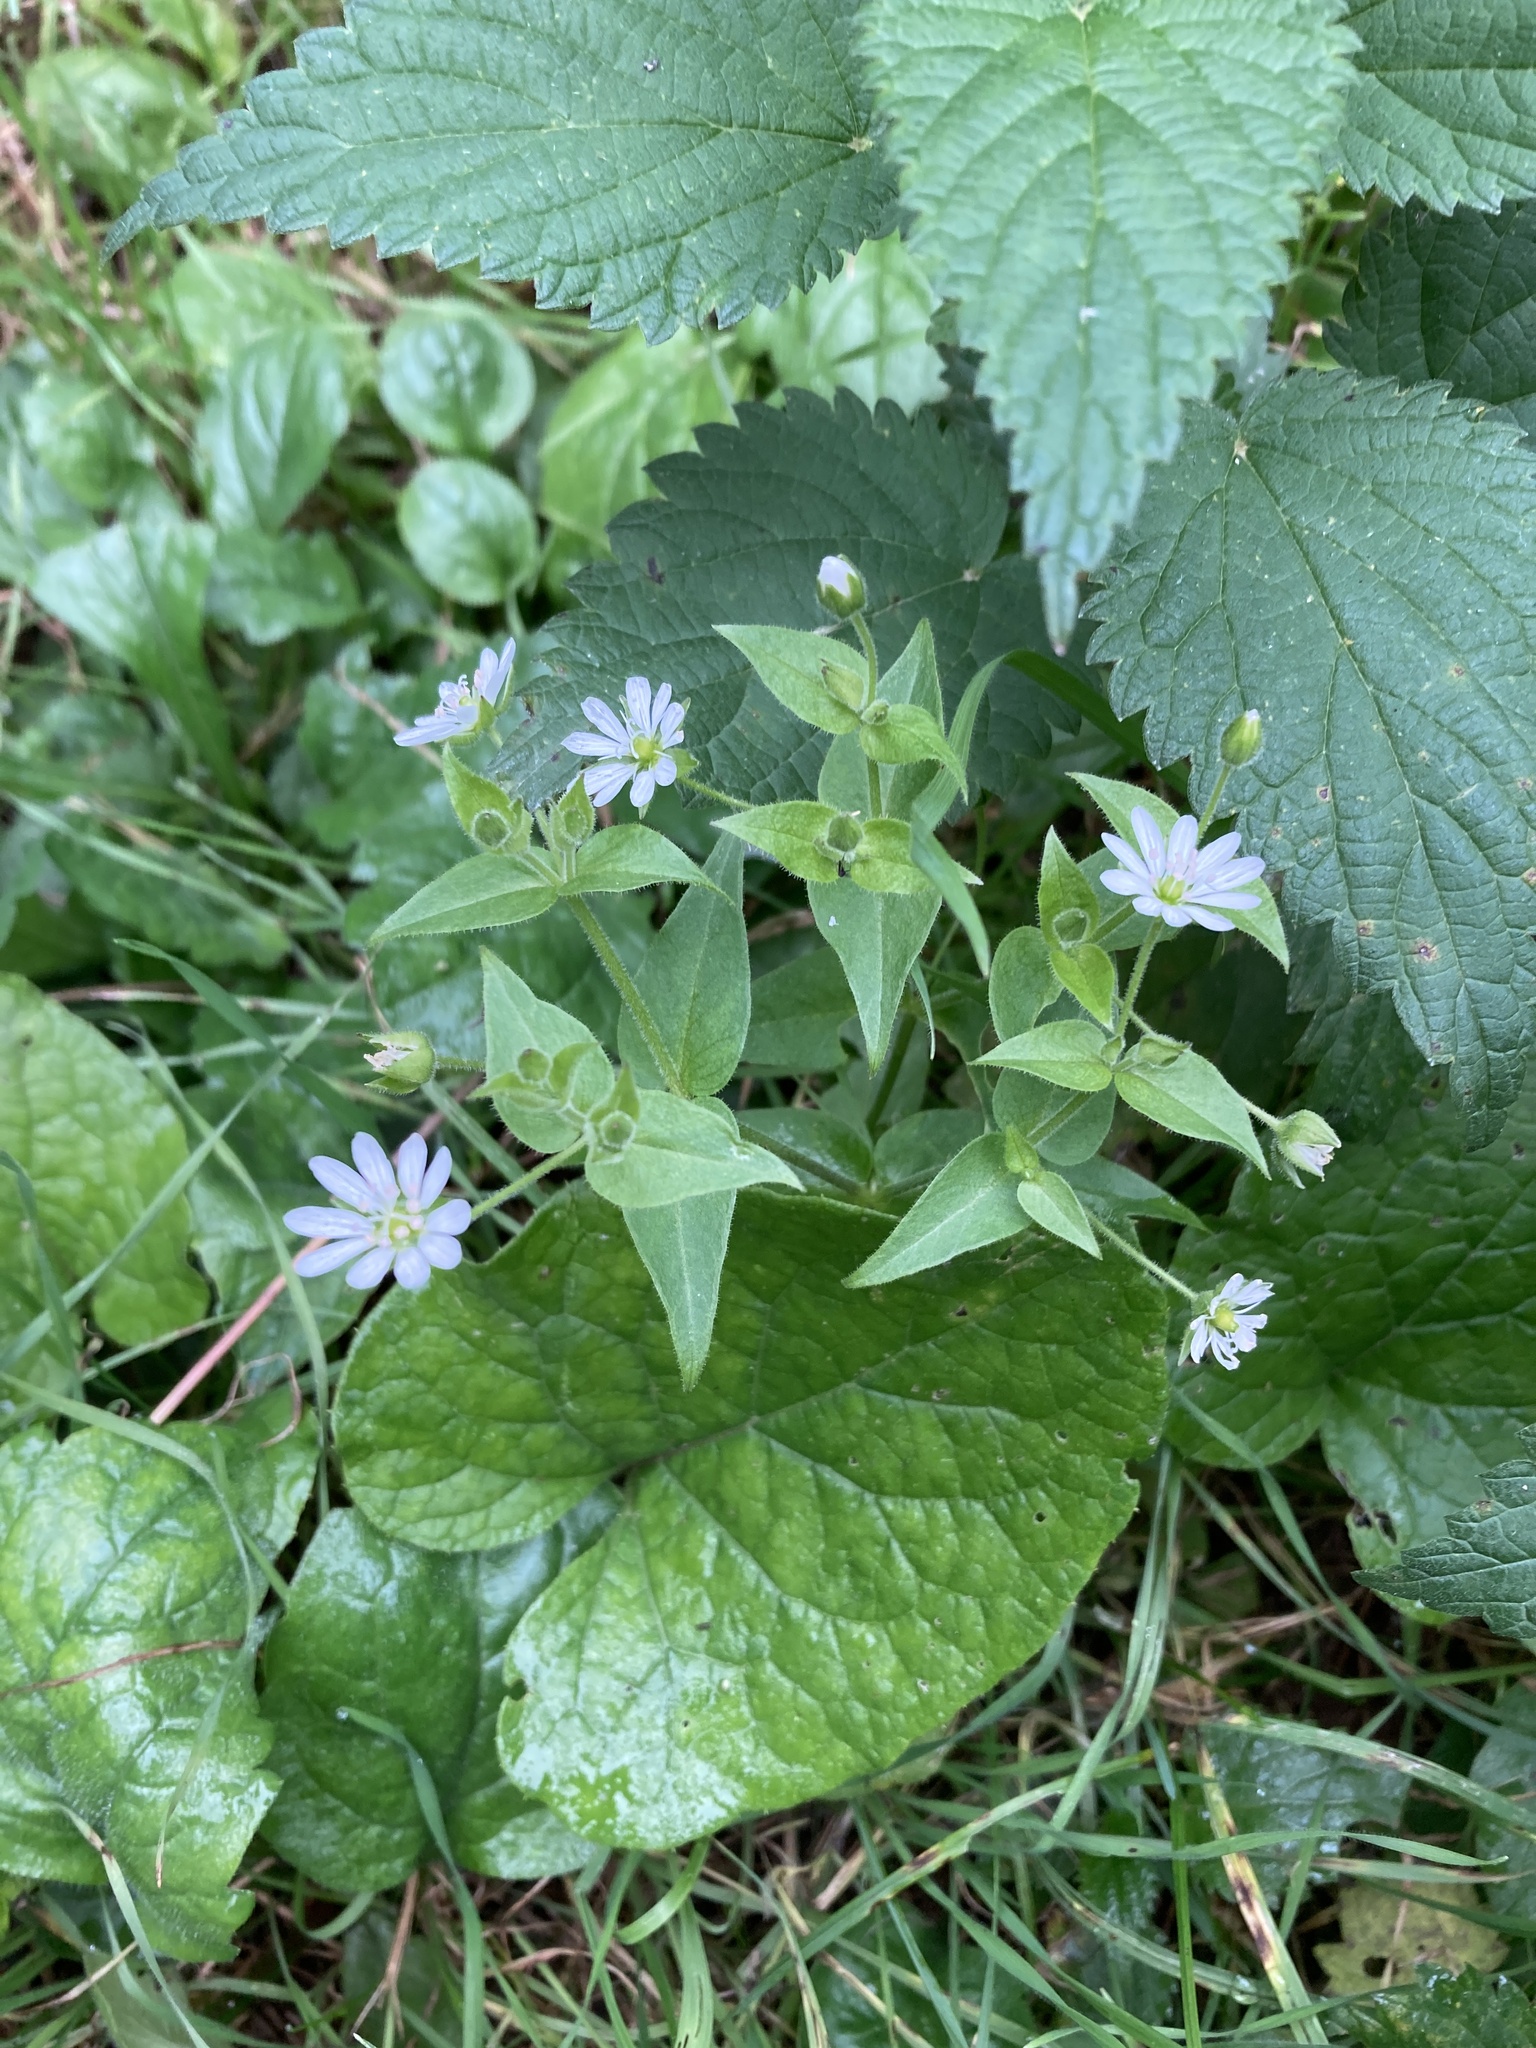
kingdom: Plantae
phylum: Tracheophyta
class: Magnoliopsida
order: Caryophyllales
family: Caryophyllaceae
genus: Stellaria
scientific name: Stellaria aquatica
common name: Water chickweed
